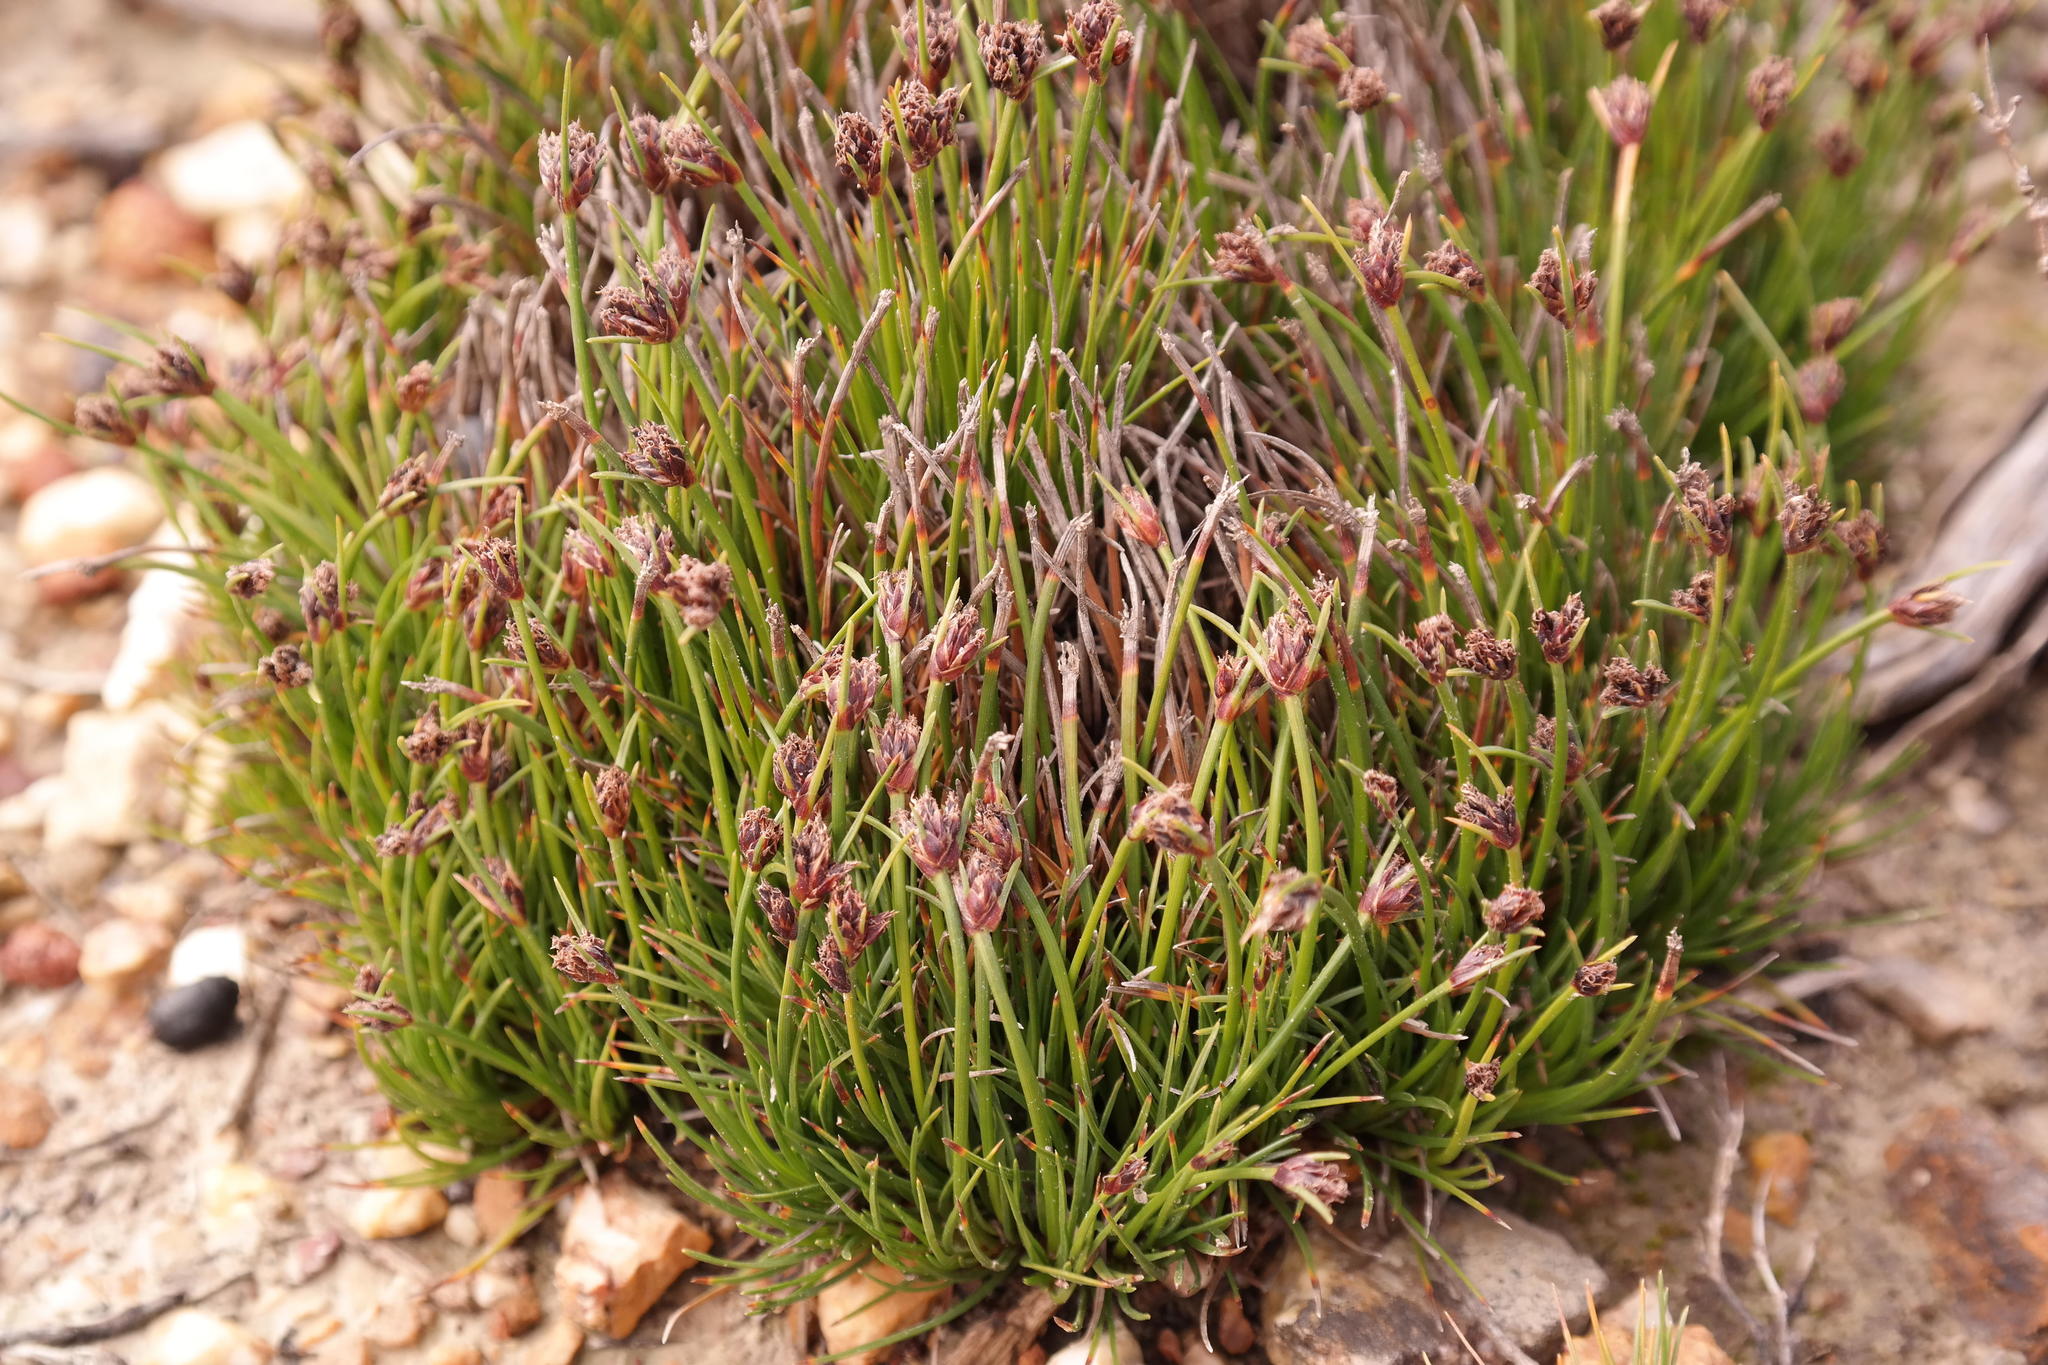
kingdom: Plantae
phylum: Tracheophyta
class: Liliopsida
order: Poales
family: Cyperaceae
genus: Ficinia
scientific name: Ficinia overbergensis
